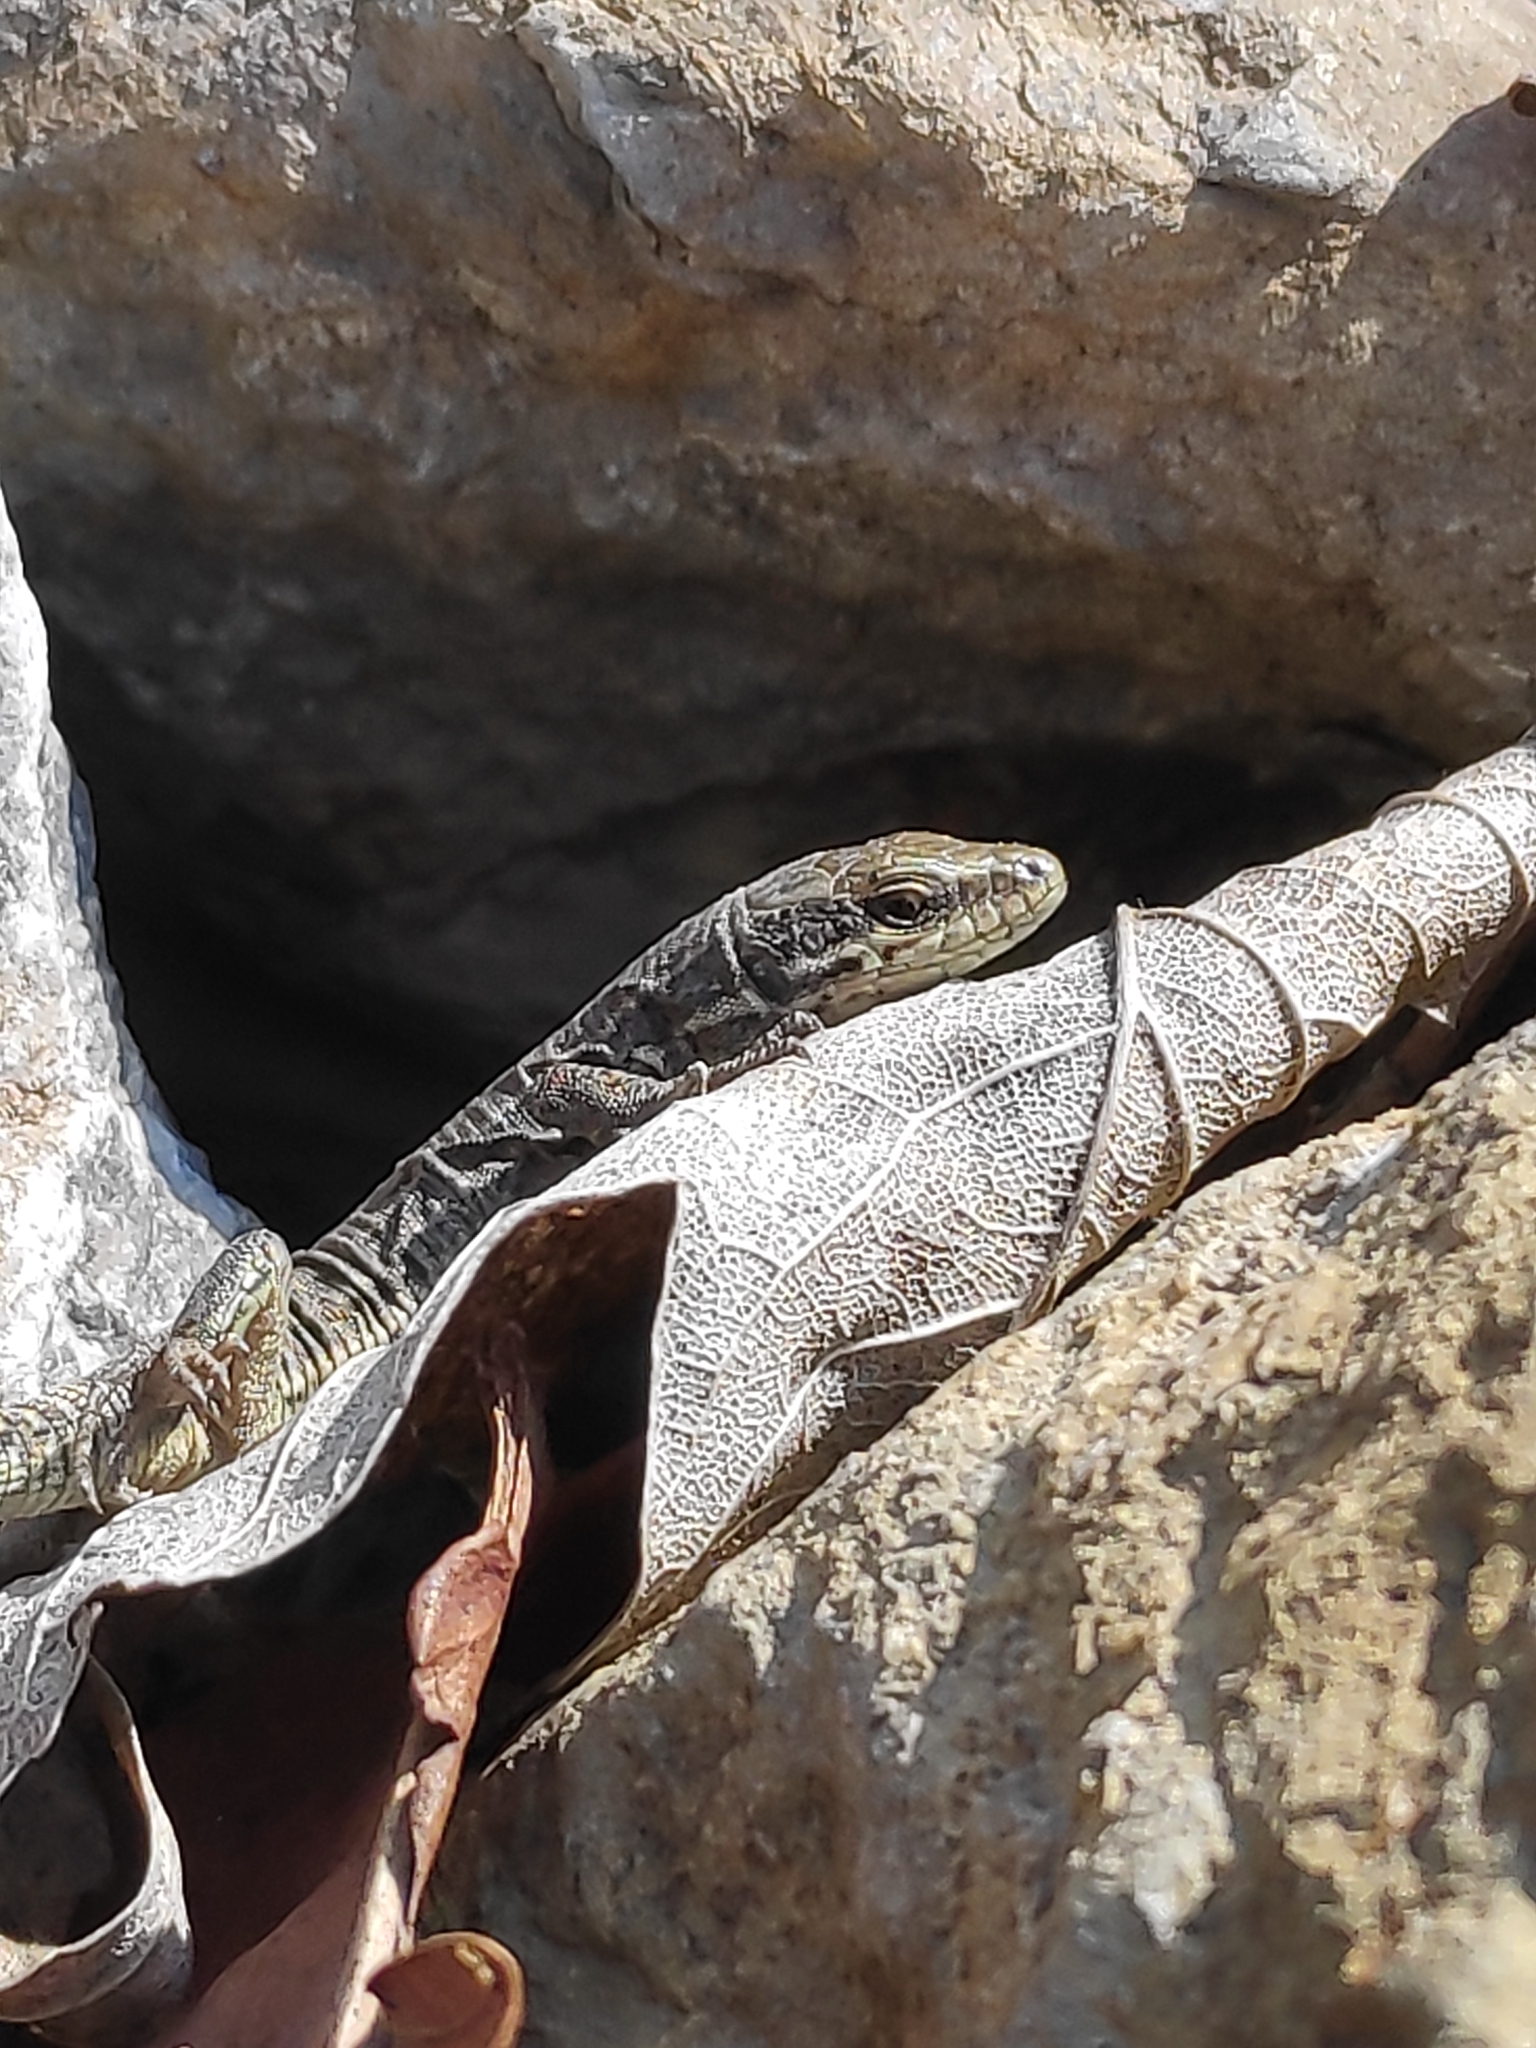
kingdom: Animalia
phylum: Chordata
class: Squamata
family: Lacertidae
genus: Podarcis
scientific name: Podarcis muralis
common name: Common wall lizard
